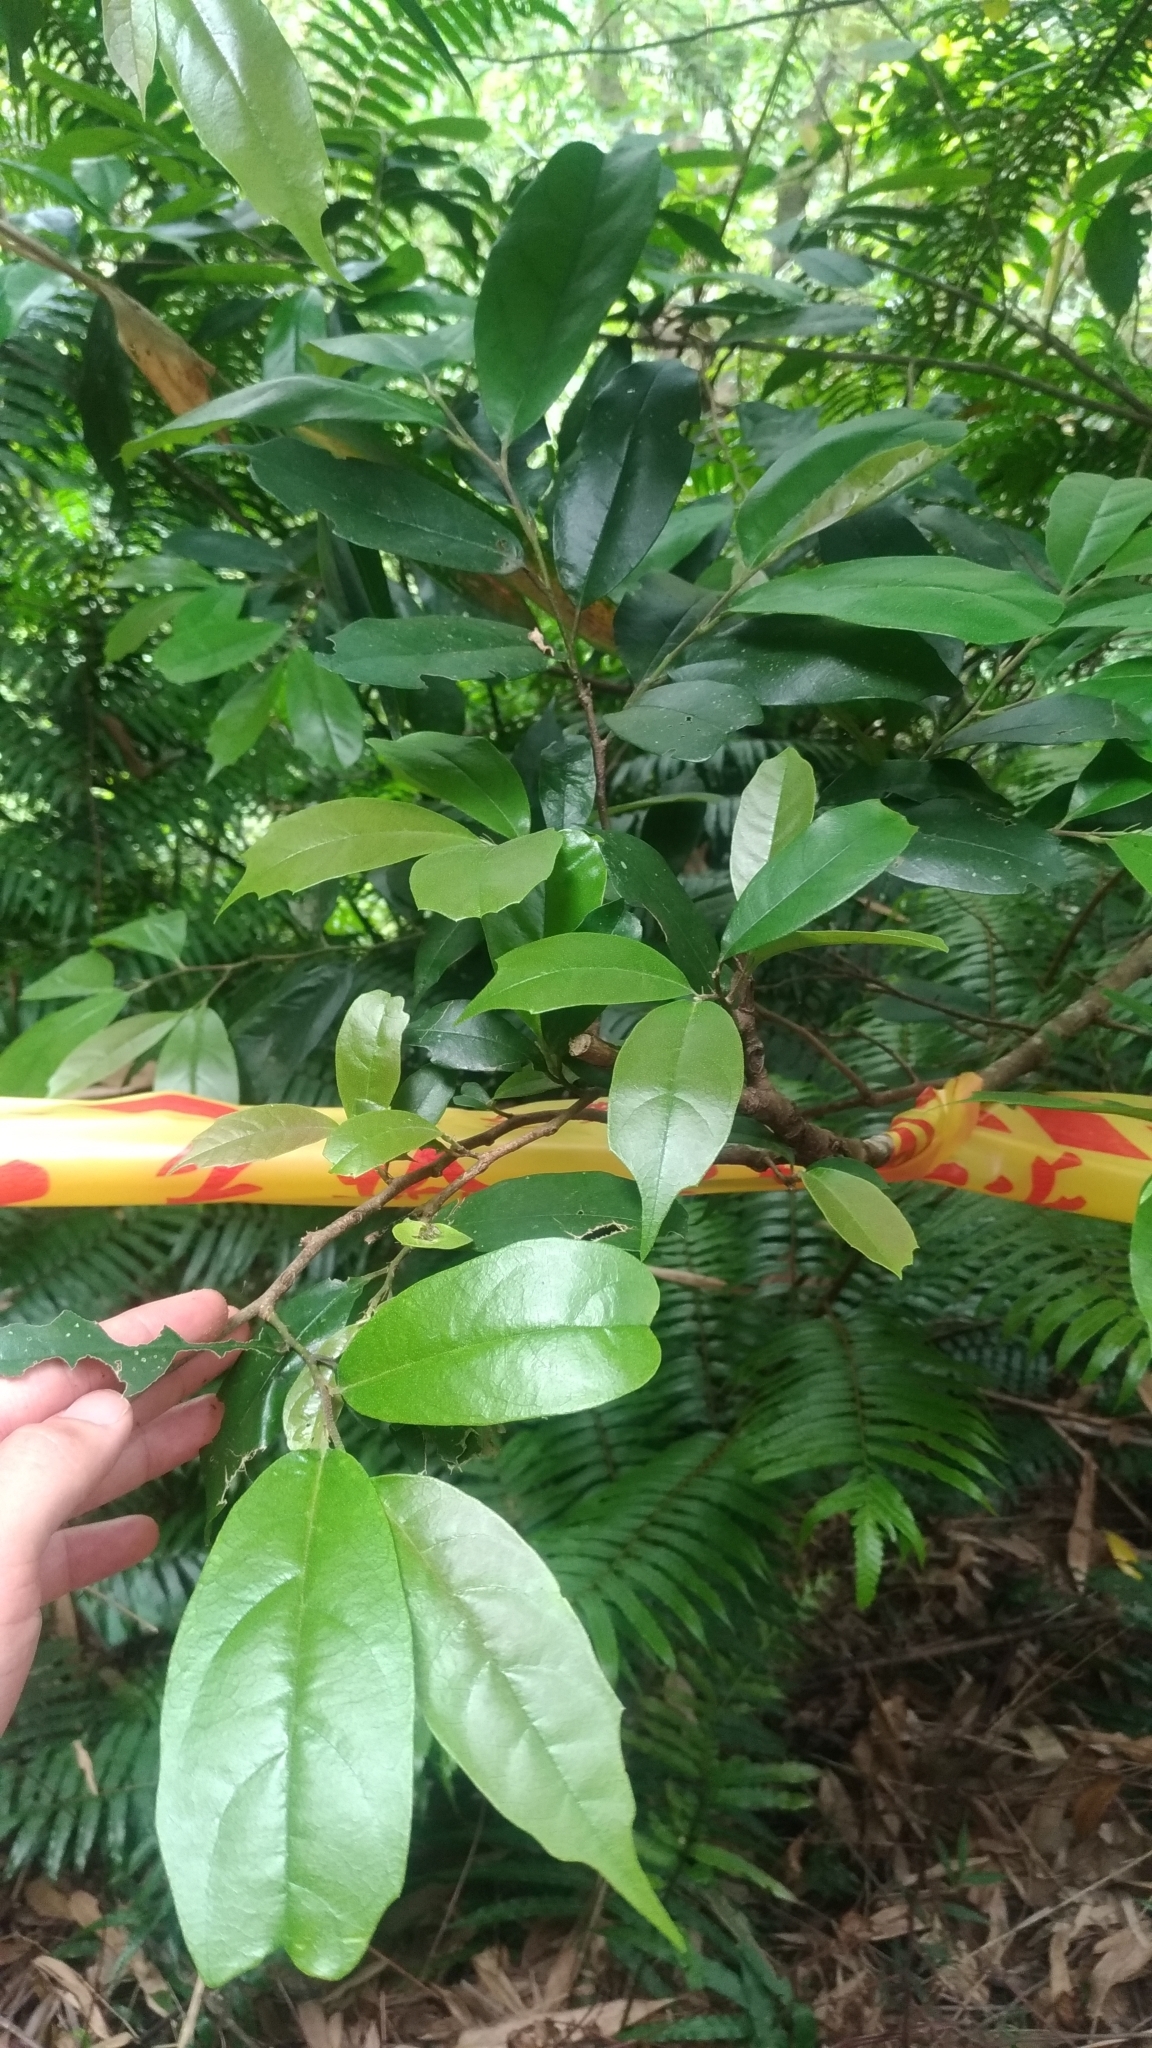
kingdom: Plantae
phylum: Tracheophyta
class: Magnoliopsida
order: Saxifragales
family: Hamamelidaceae
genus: Eustigma
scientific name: Eustigma oblongifolium
